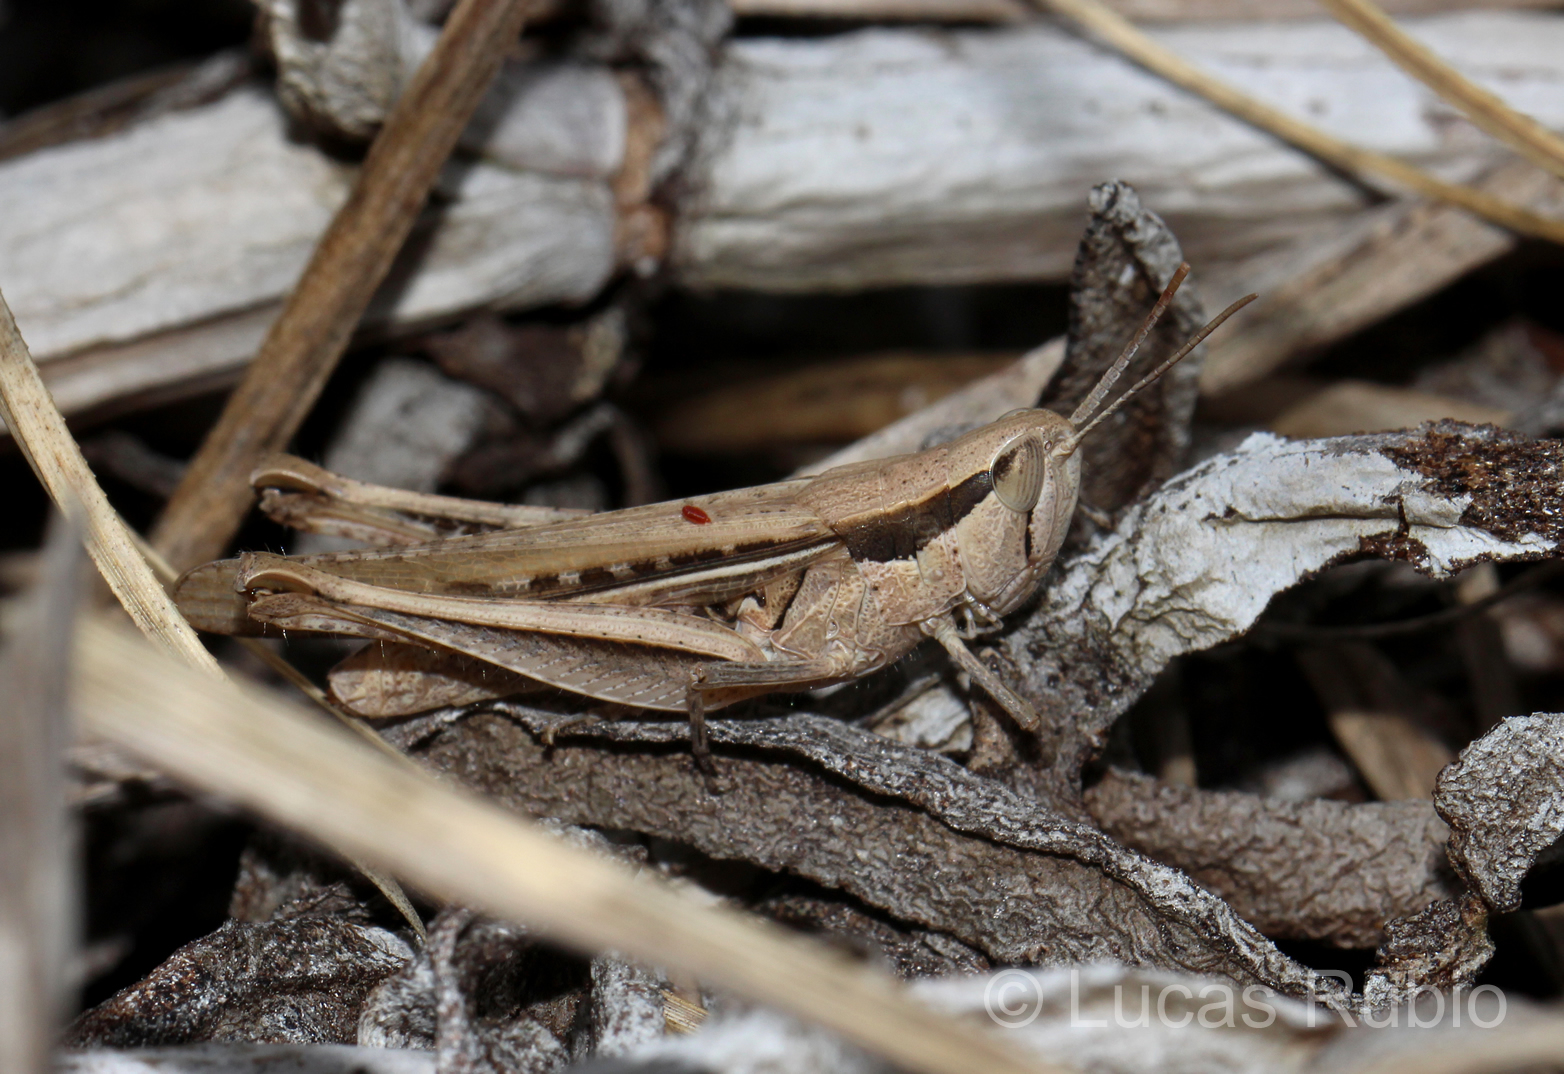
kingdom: Animalia
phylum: Arthropoda
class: Insecta
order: Orthoptera
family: Acrididae
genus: Euplectrotettix
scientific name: Euplectrotettix ferrugineus
